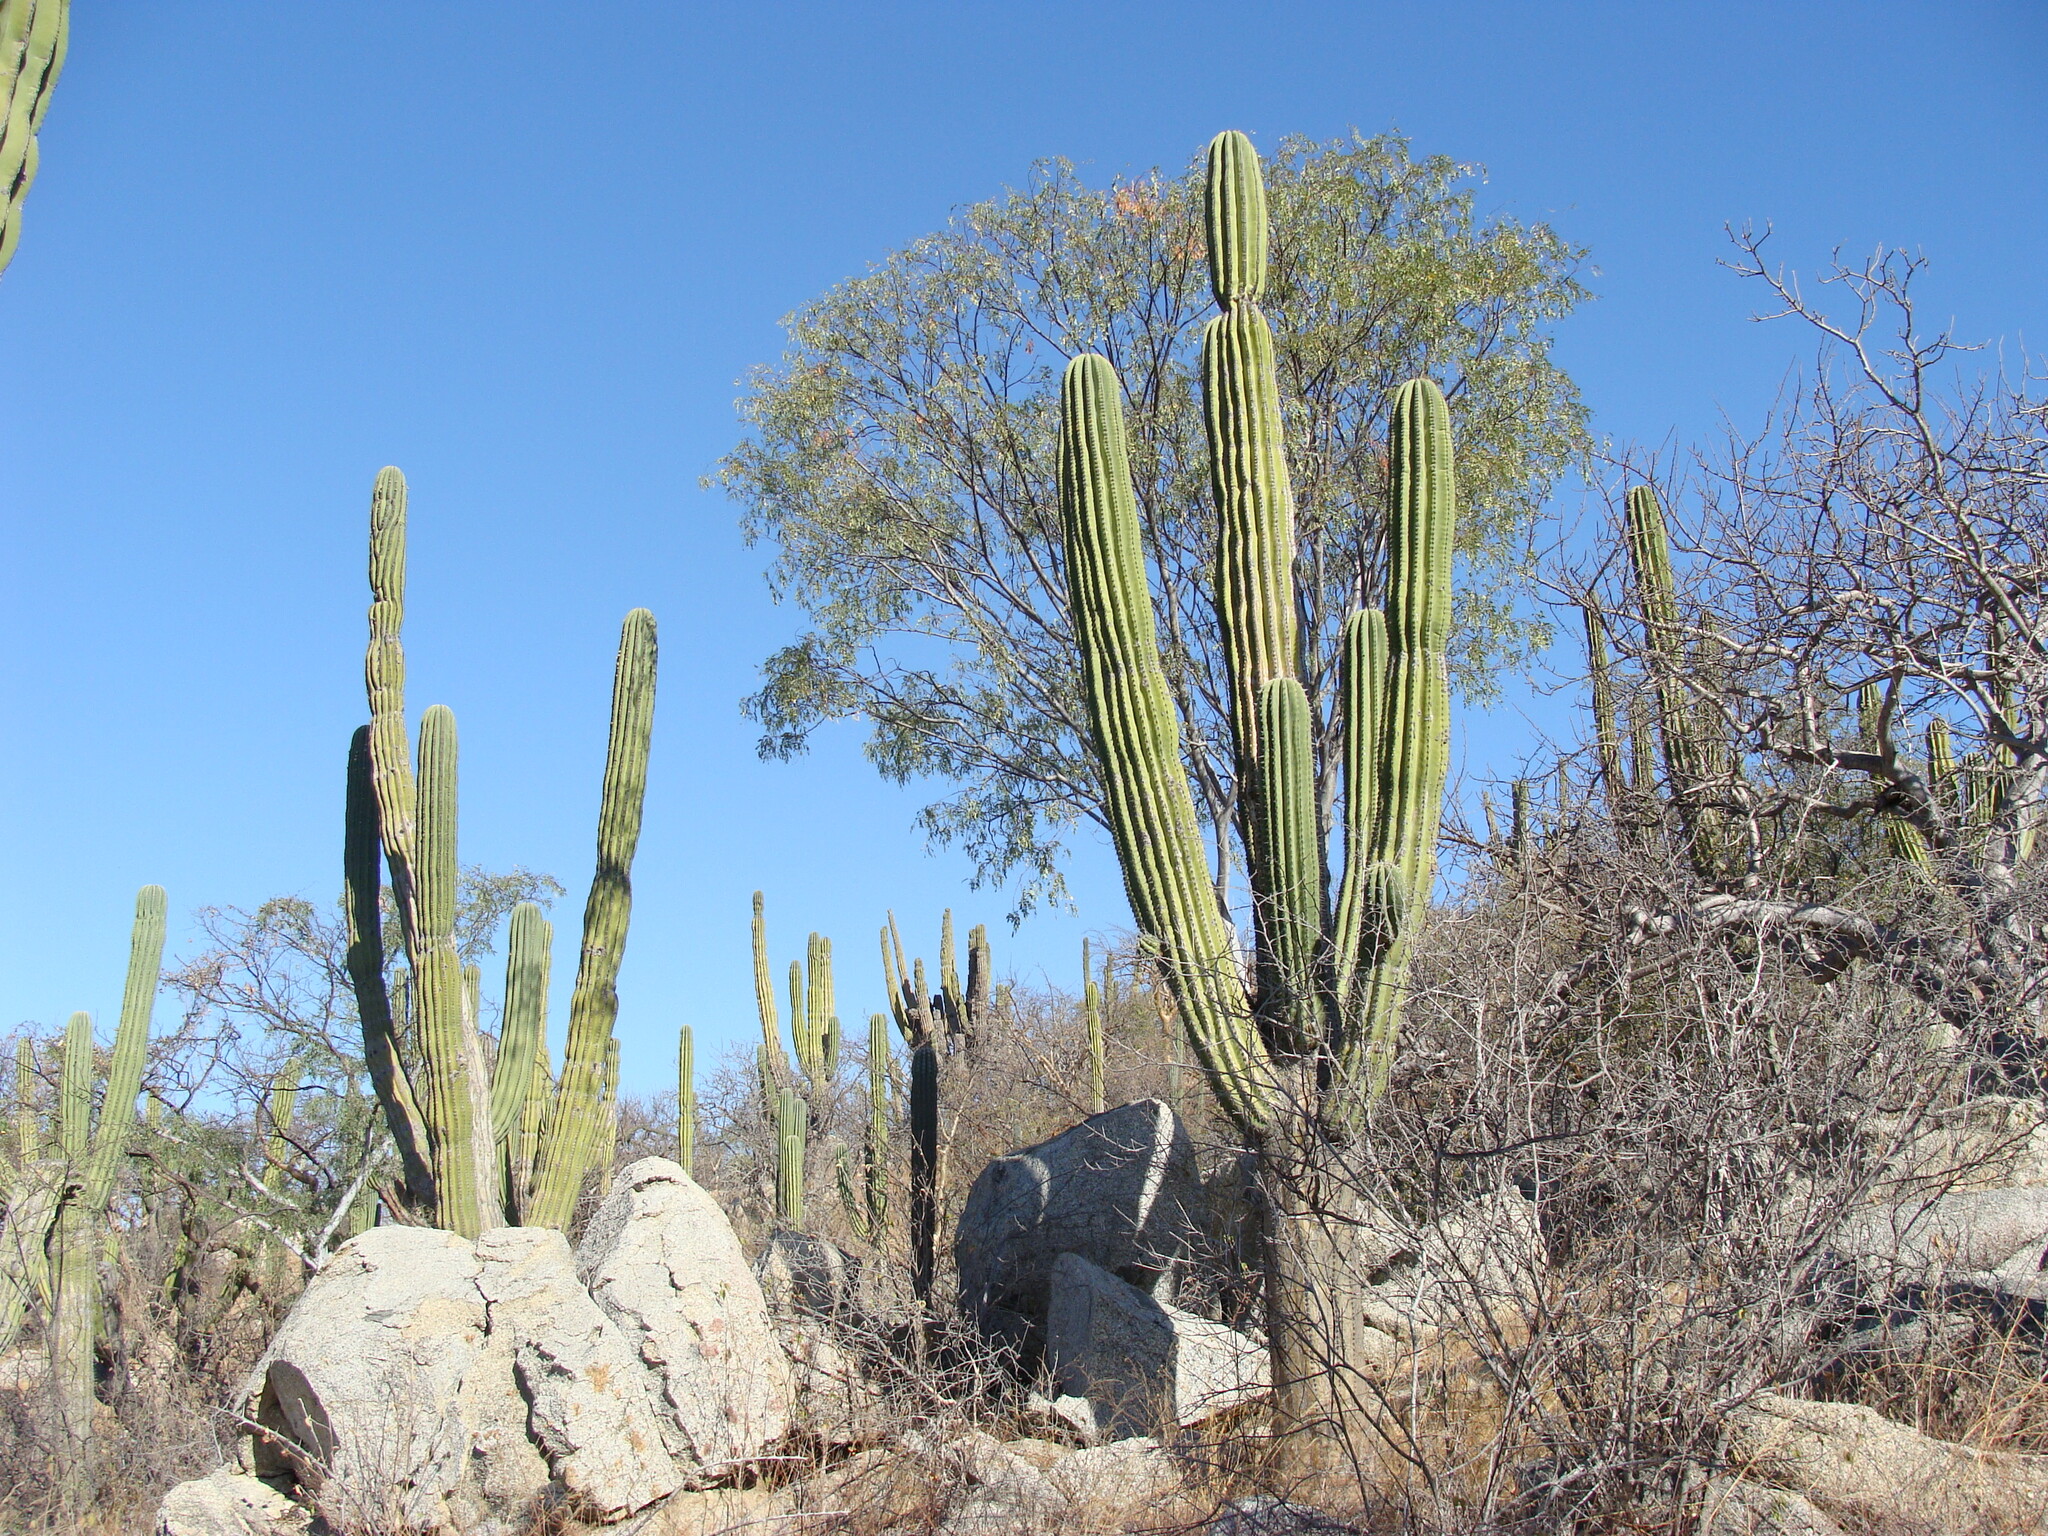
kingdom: Plantae
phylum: Tracheophyta
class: Magnoliopsida
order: Caryophyllales
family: Cactaceae
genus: Pachycereus
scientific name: Pachycereus pringlei
